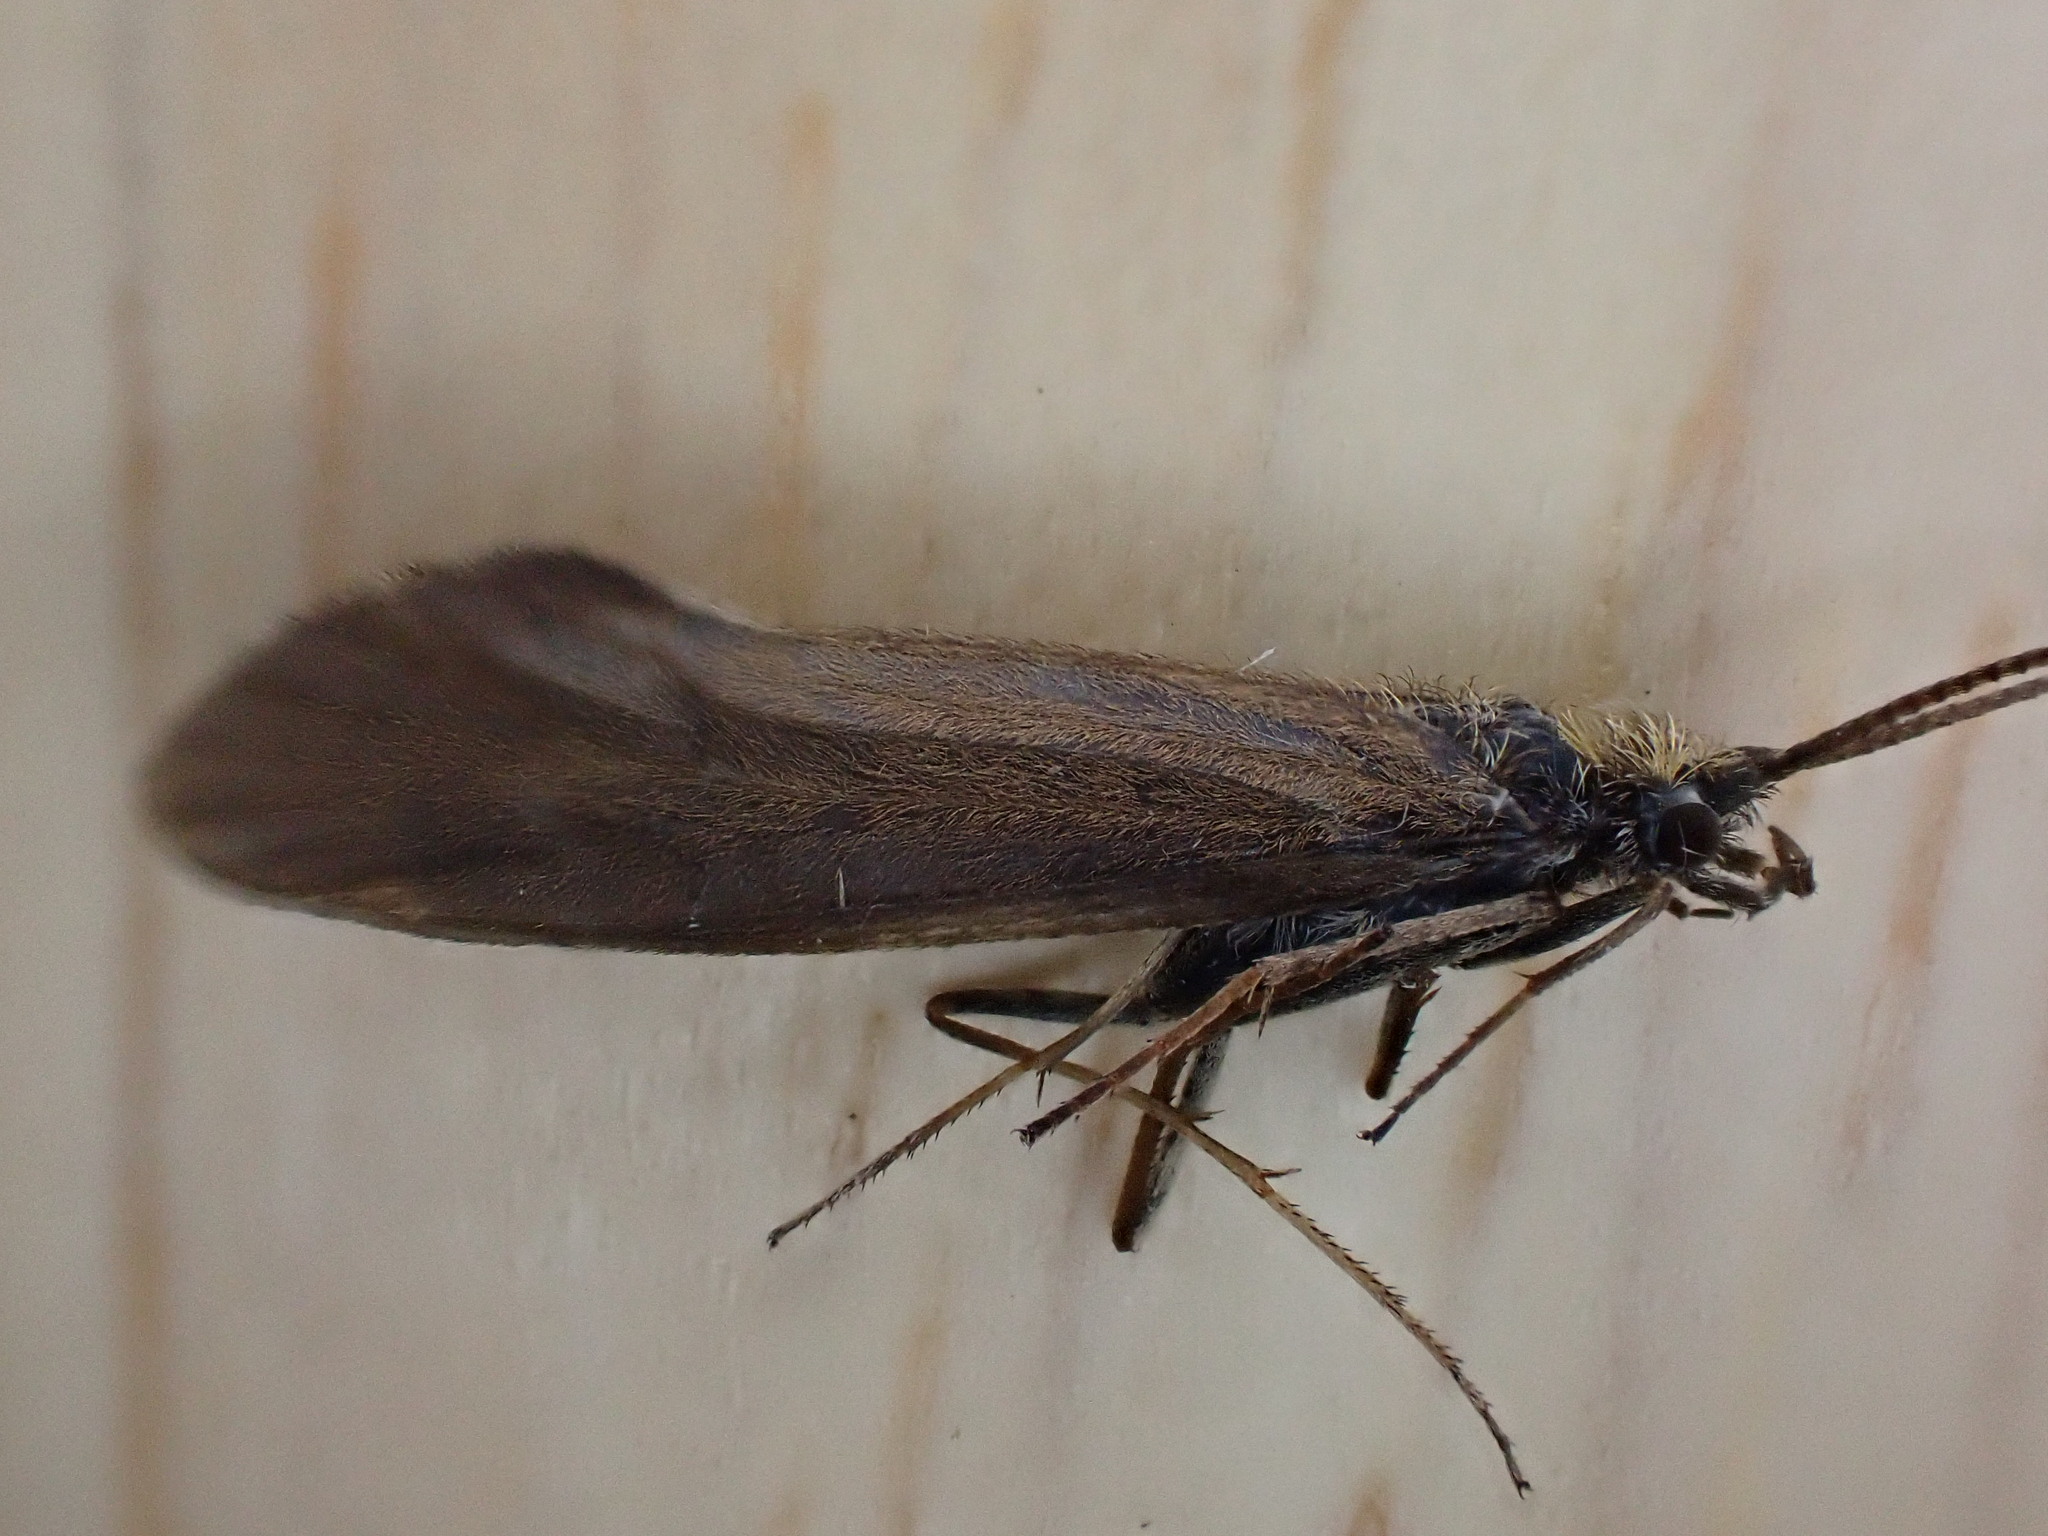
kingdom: Animalia
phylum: Arthropoda
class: Insecta
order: Trichoptera
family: Sericostomatidae
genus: Sericostoma
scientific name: Sericostoma personatum
